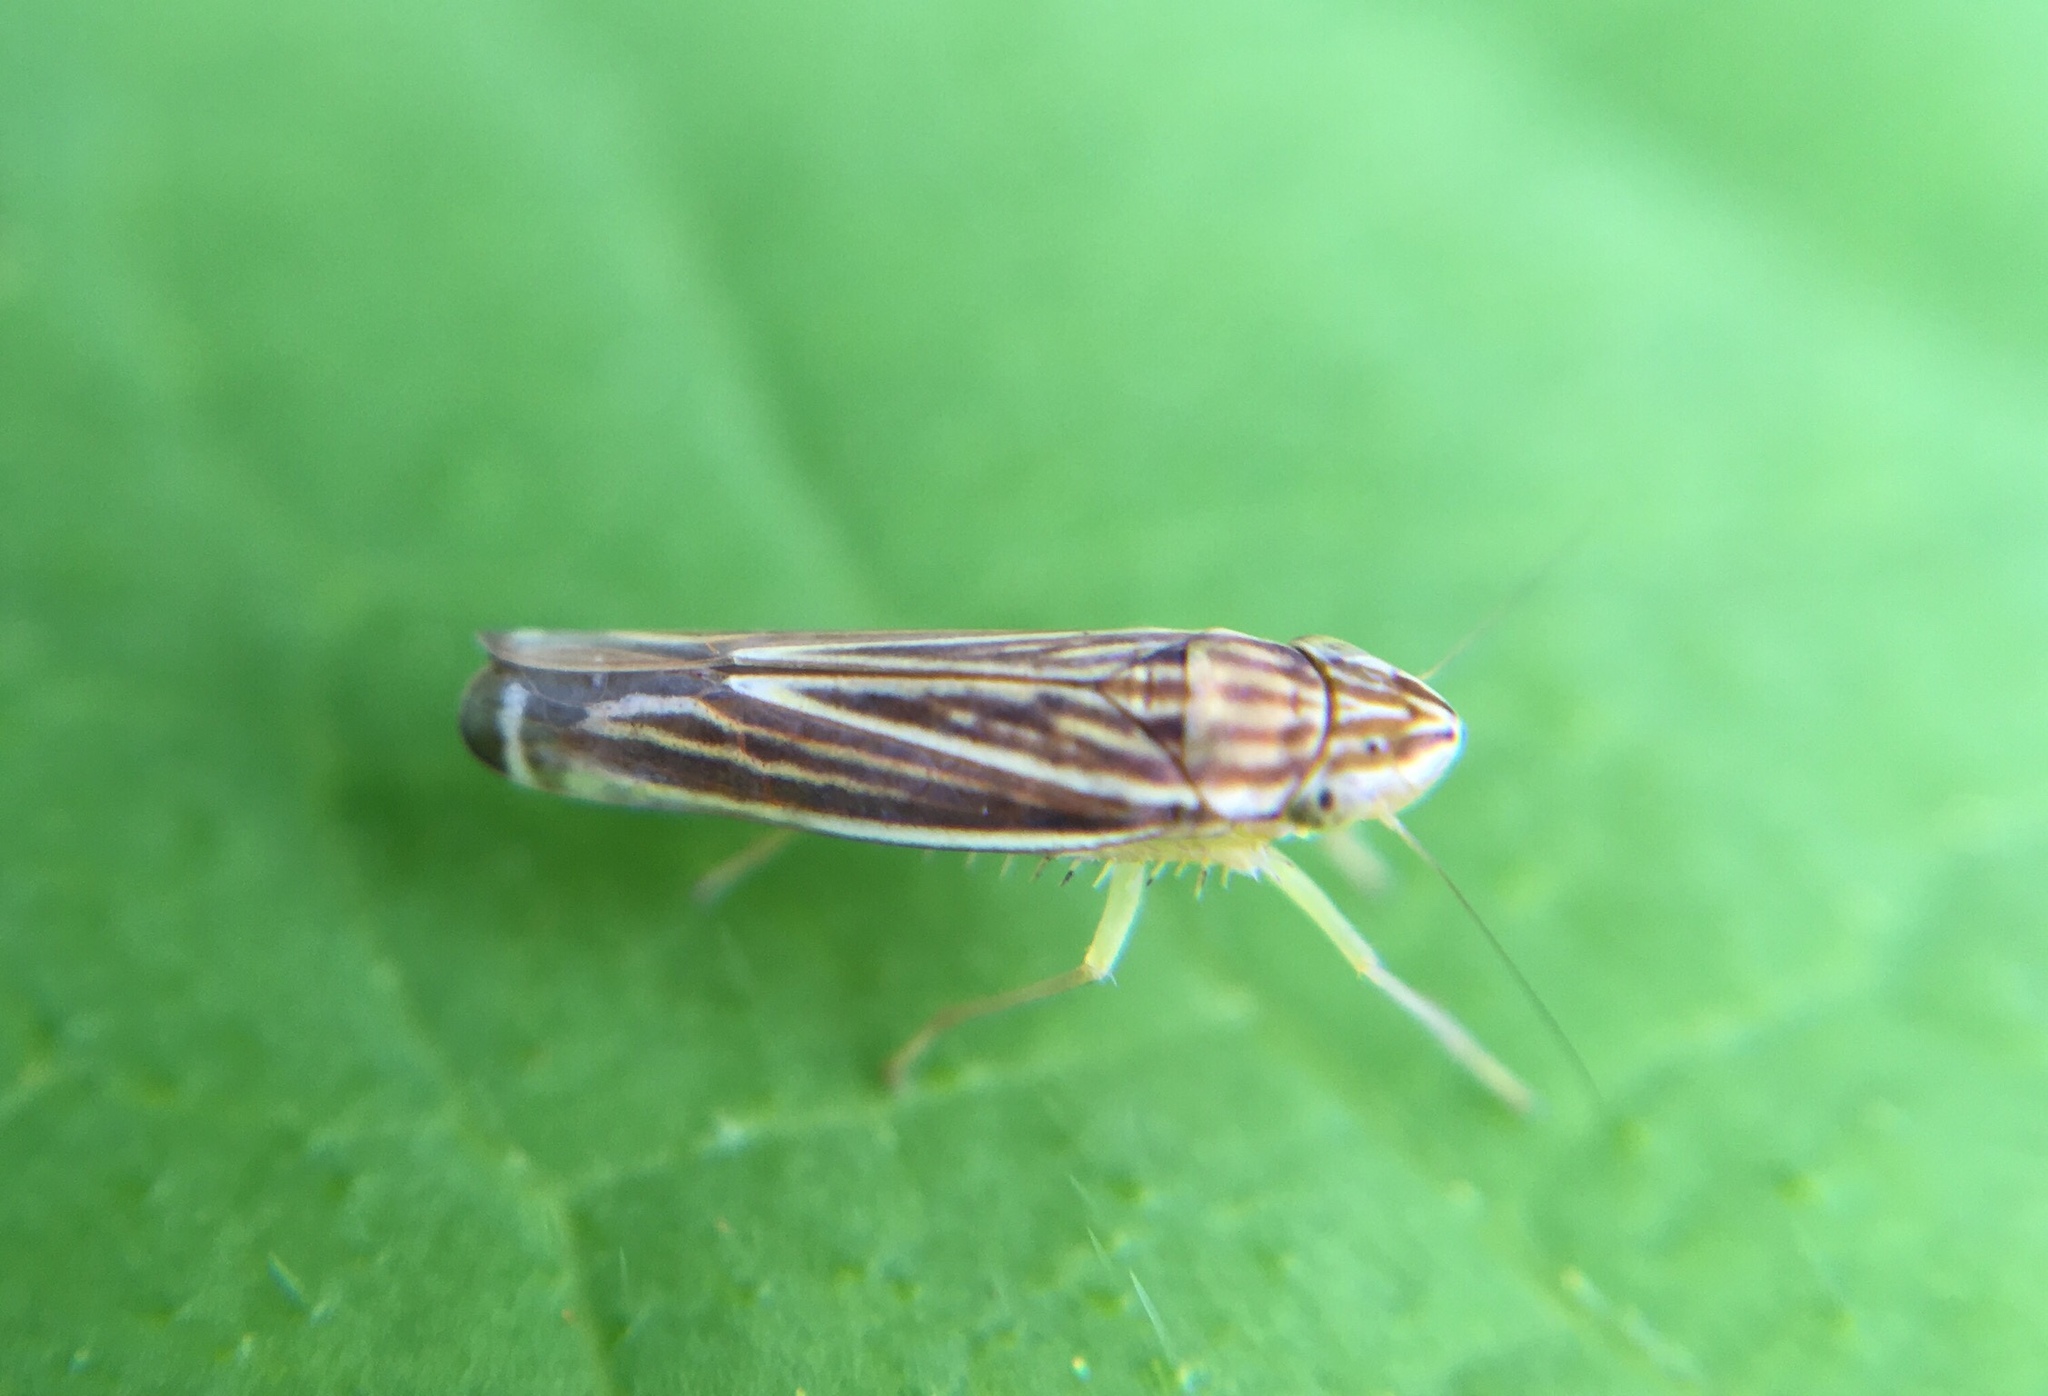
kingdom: Animalia
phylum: Arthropoda
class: Insecta
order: Hemiptera
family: Cicadellidae
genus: Sibovia
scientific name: Sibovia occatoria
